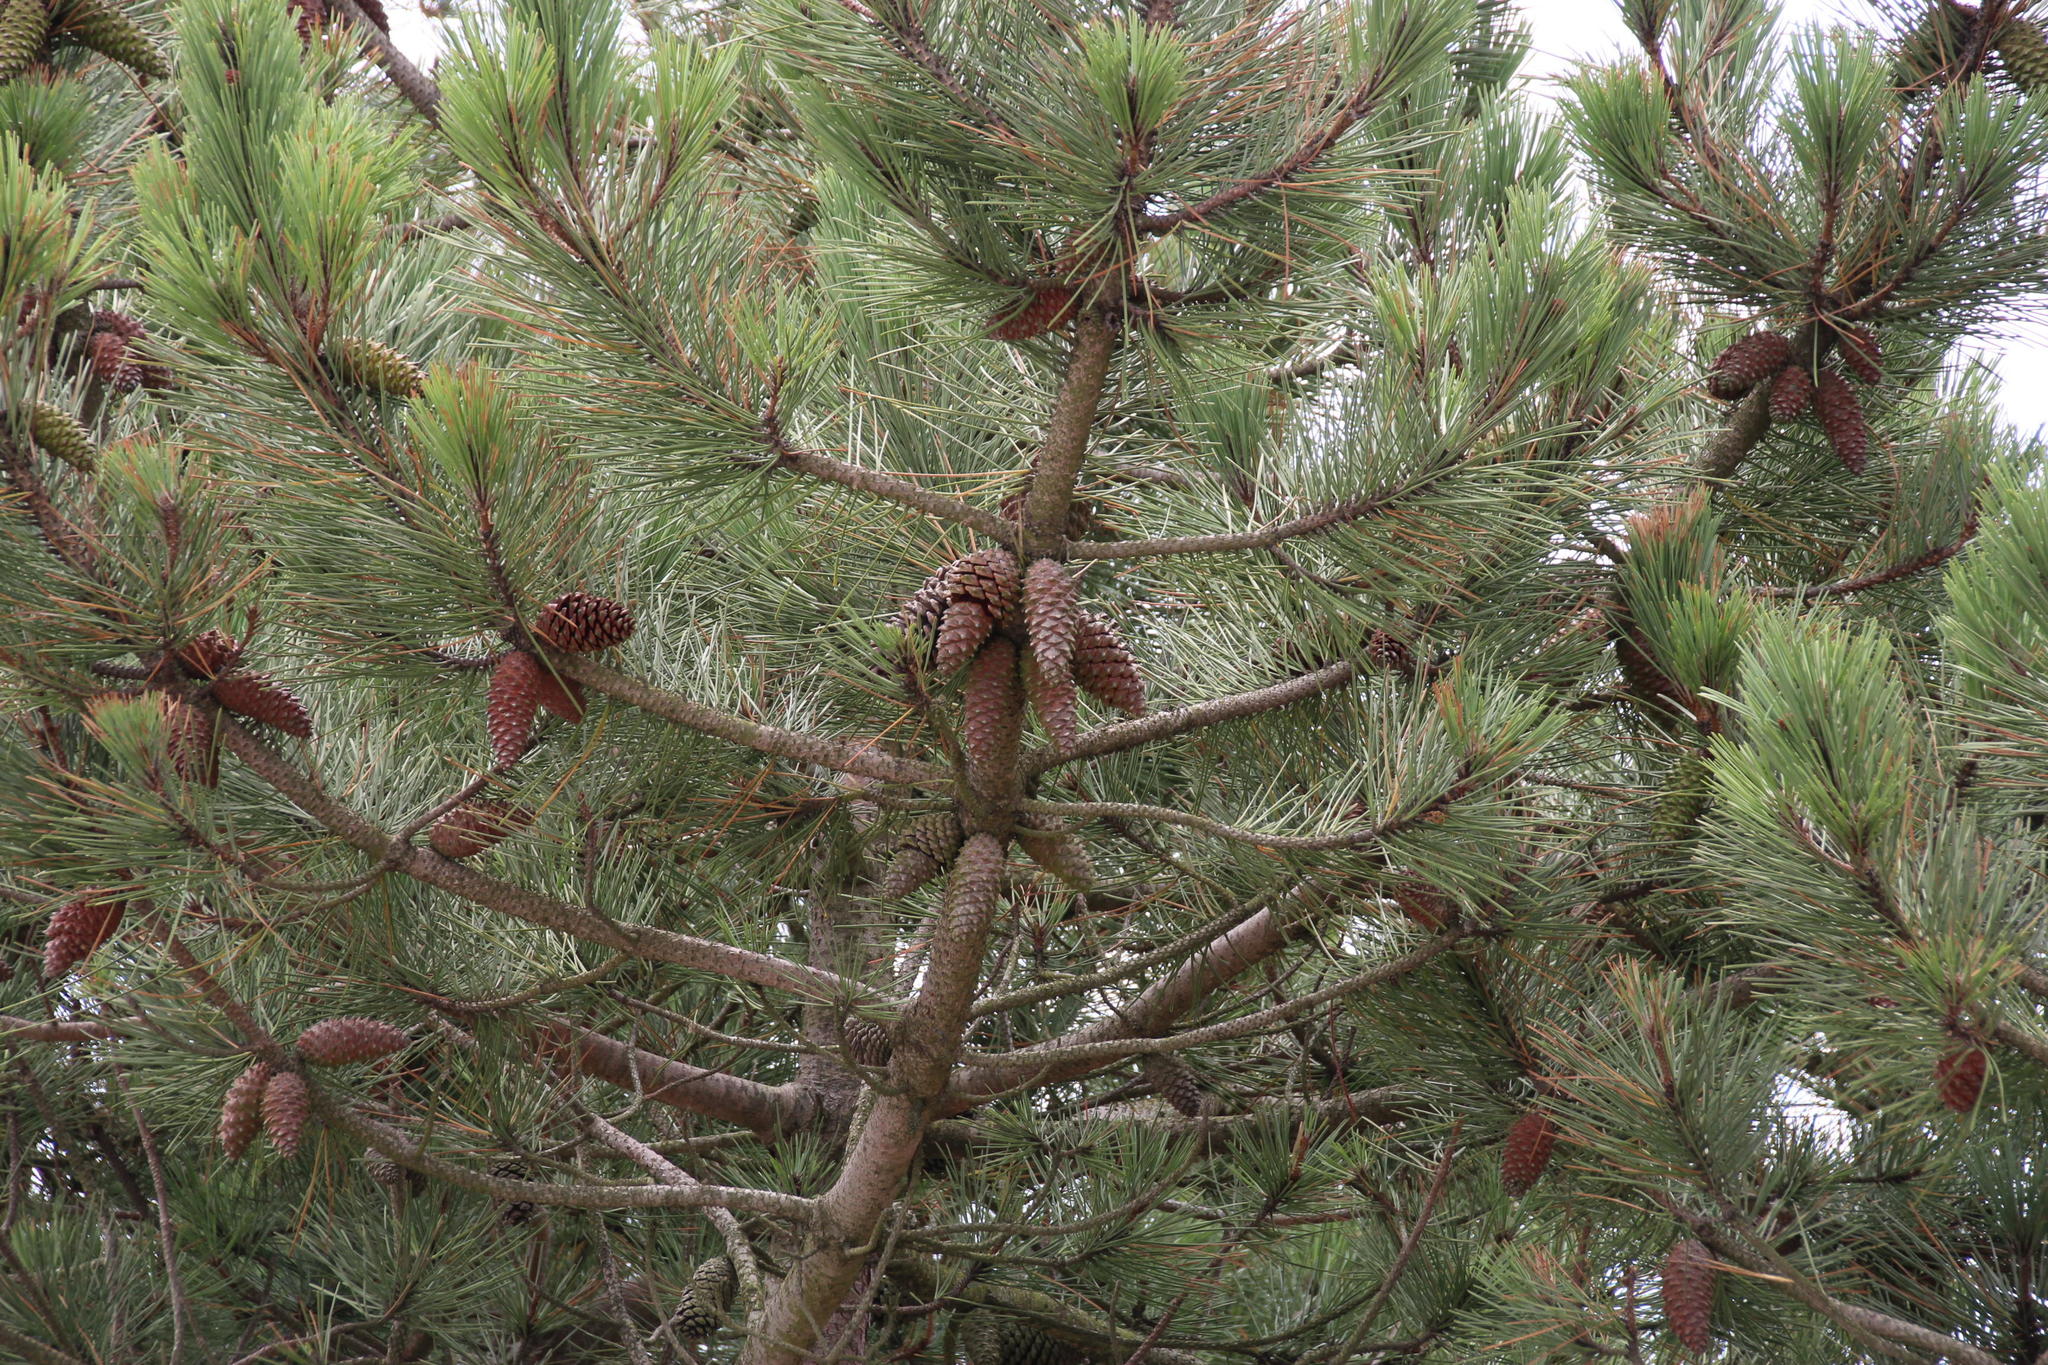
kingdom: Plantae
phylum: Tracheophyta
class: Pinopsida
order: Pinales
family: Pinaceae
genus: Pinus
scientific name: Pinus pinaster
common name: Maritime pine
